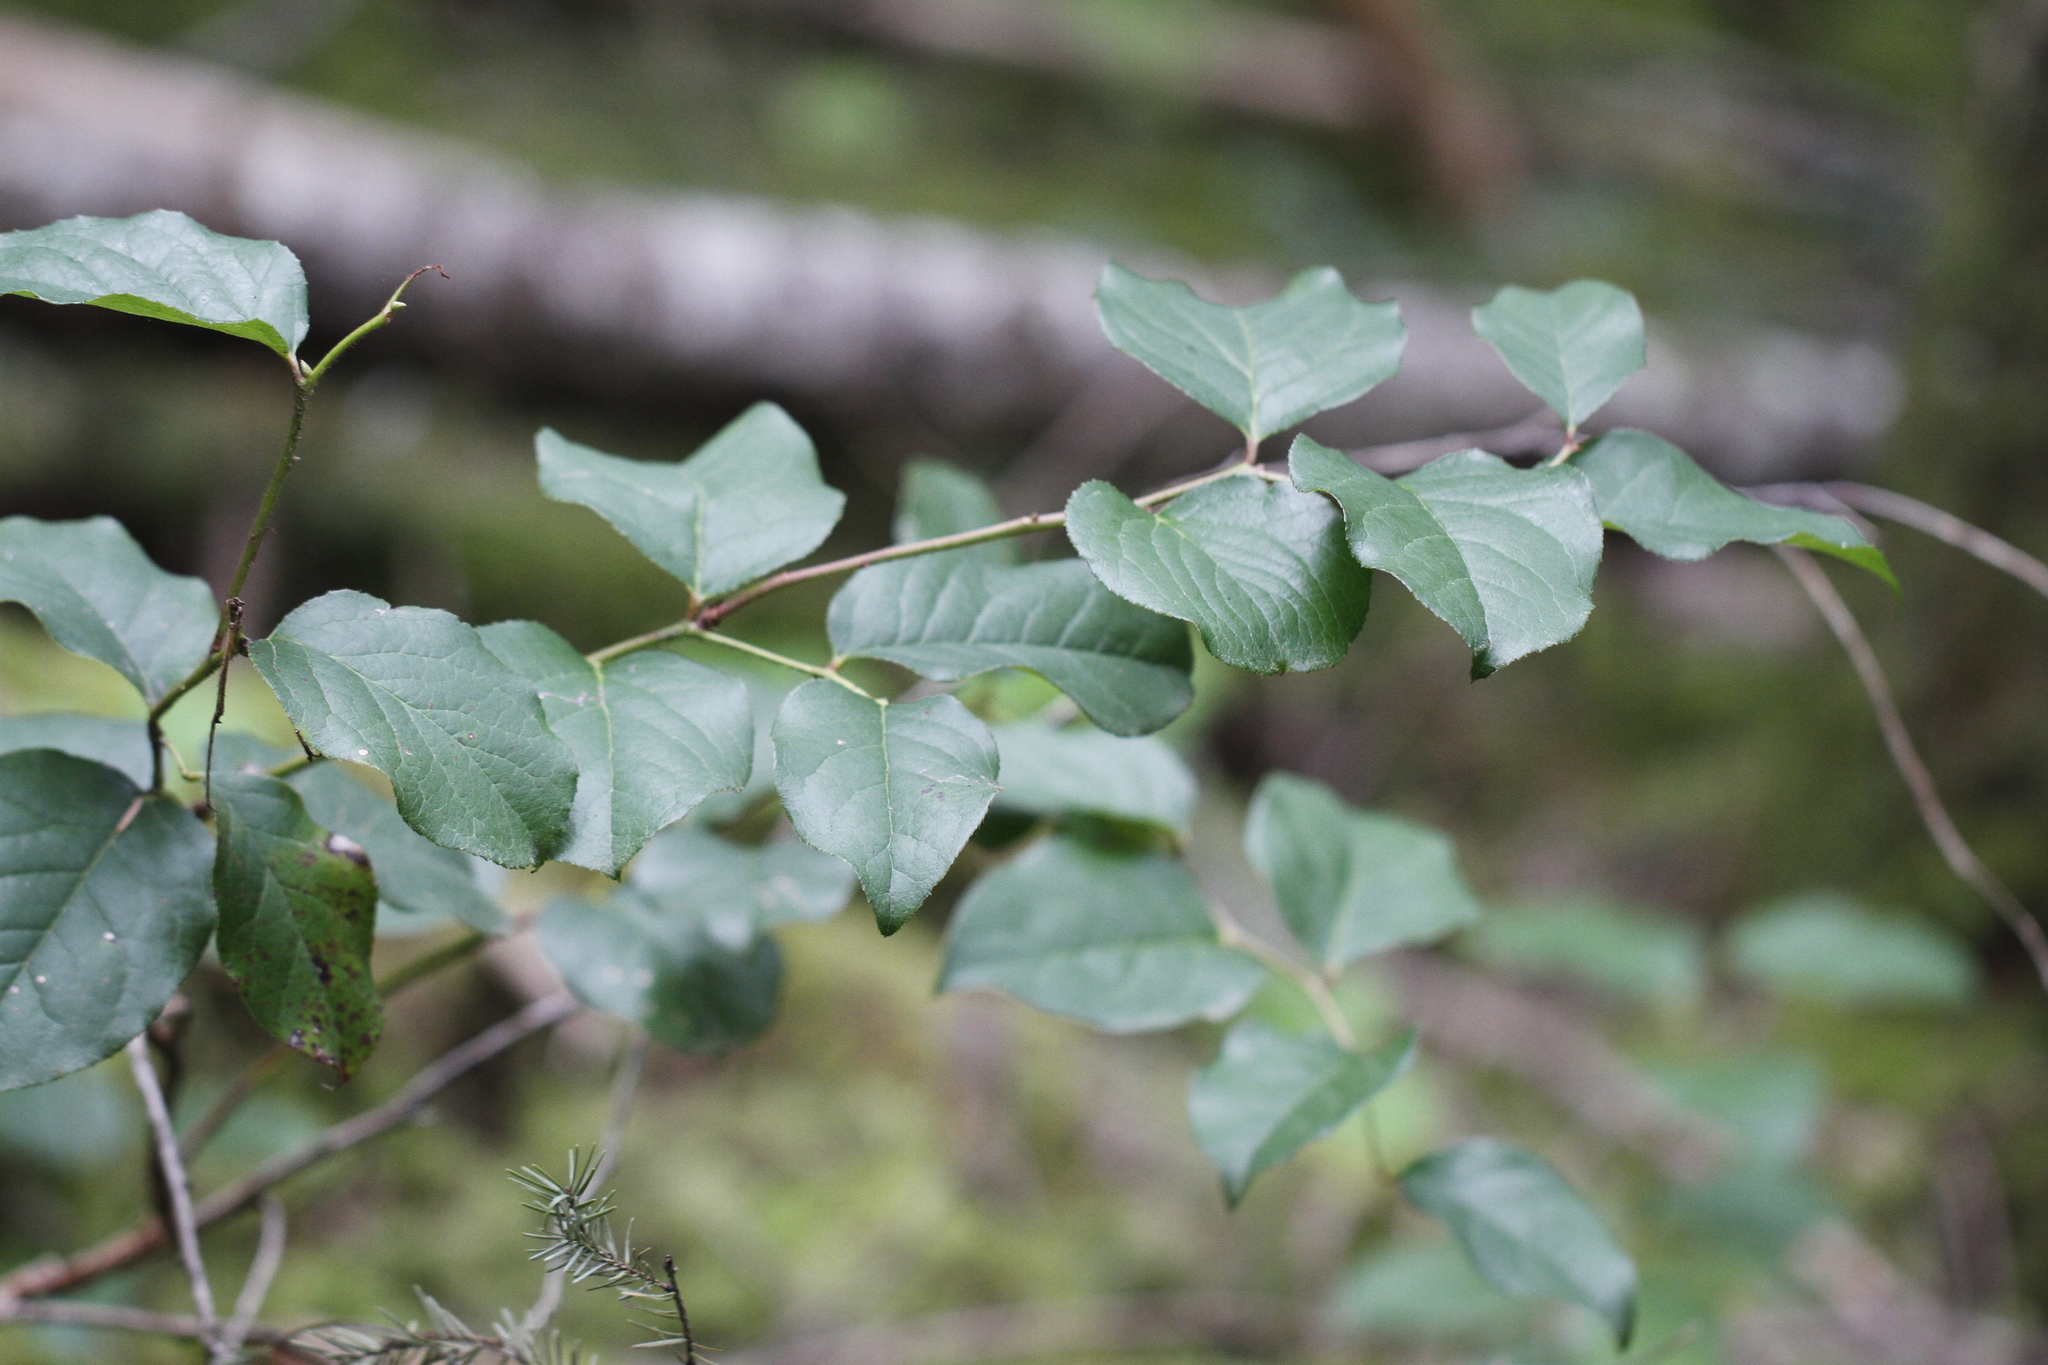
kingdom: Plantae
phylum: Tracheophyta
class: Magnoliopsida
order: Ericales
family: Ericaceae
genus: Gaultheria
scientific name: Gaultheria shallon
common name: Shallon
